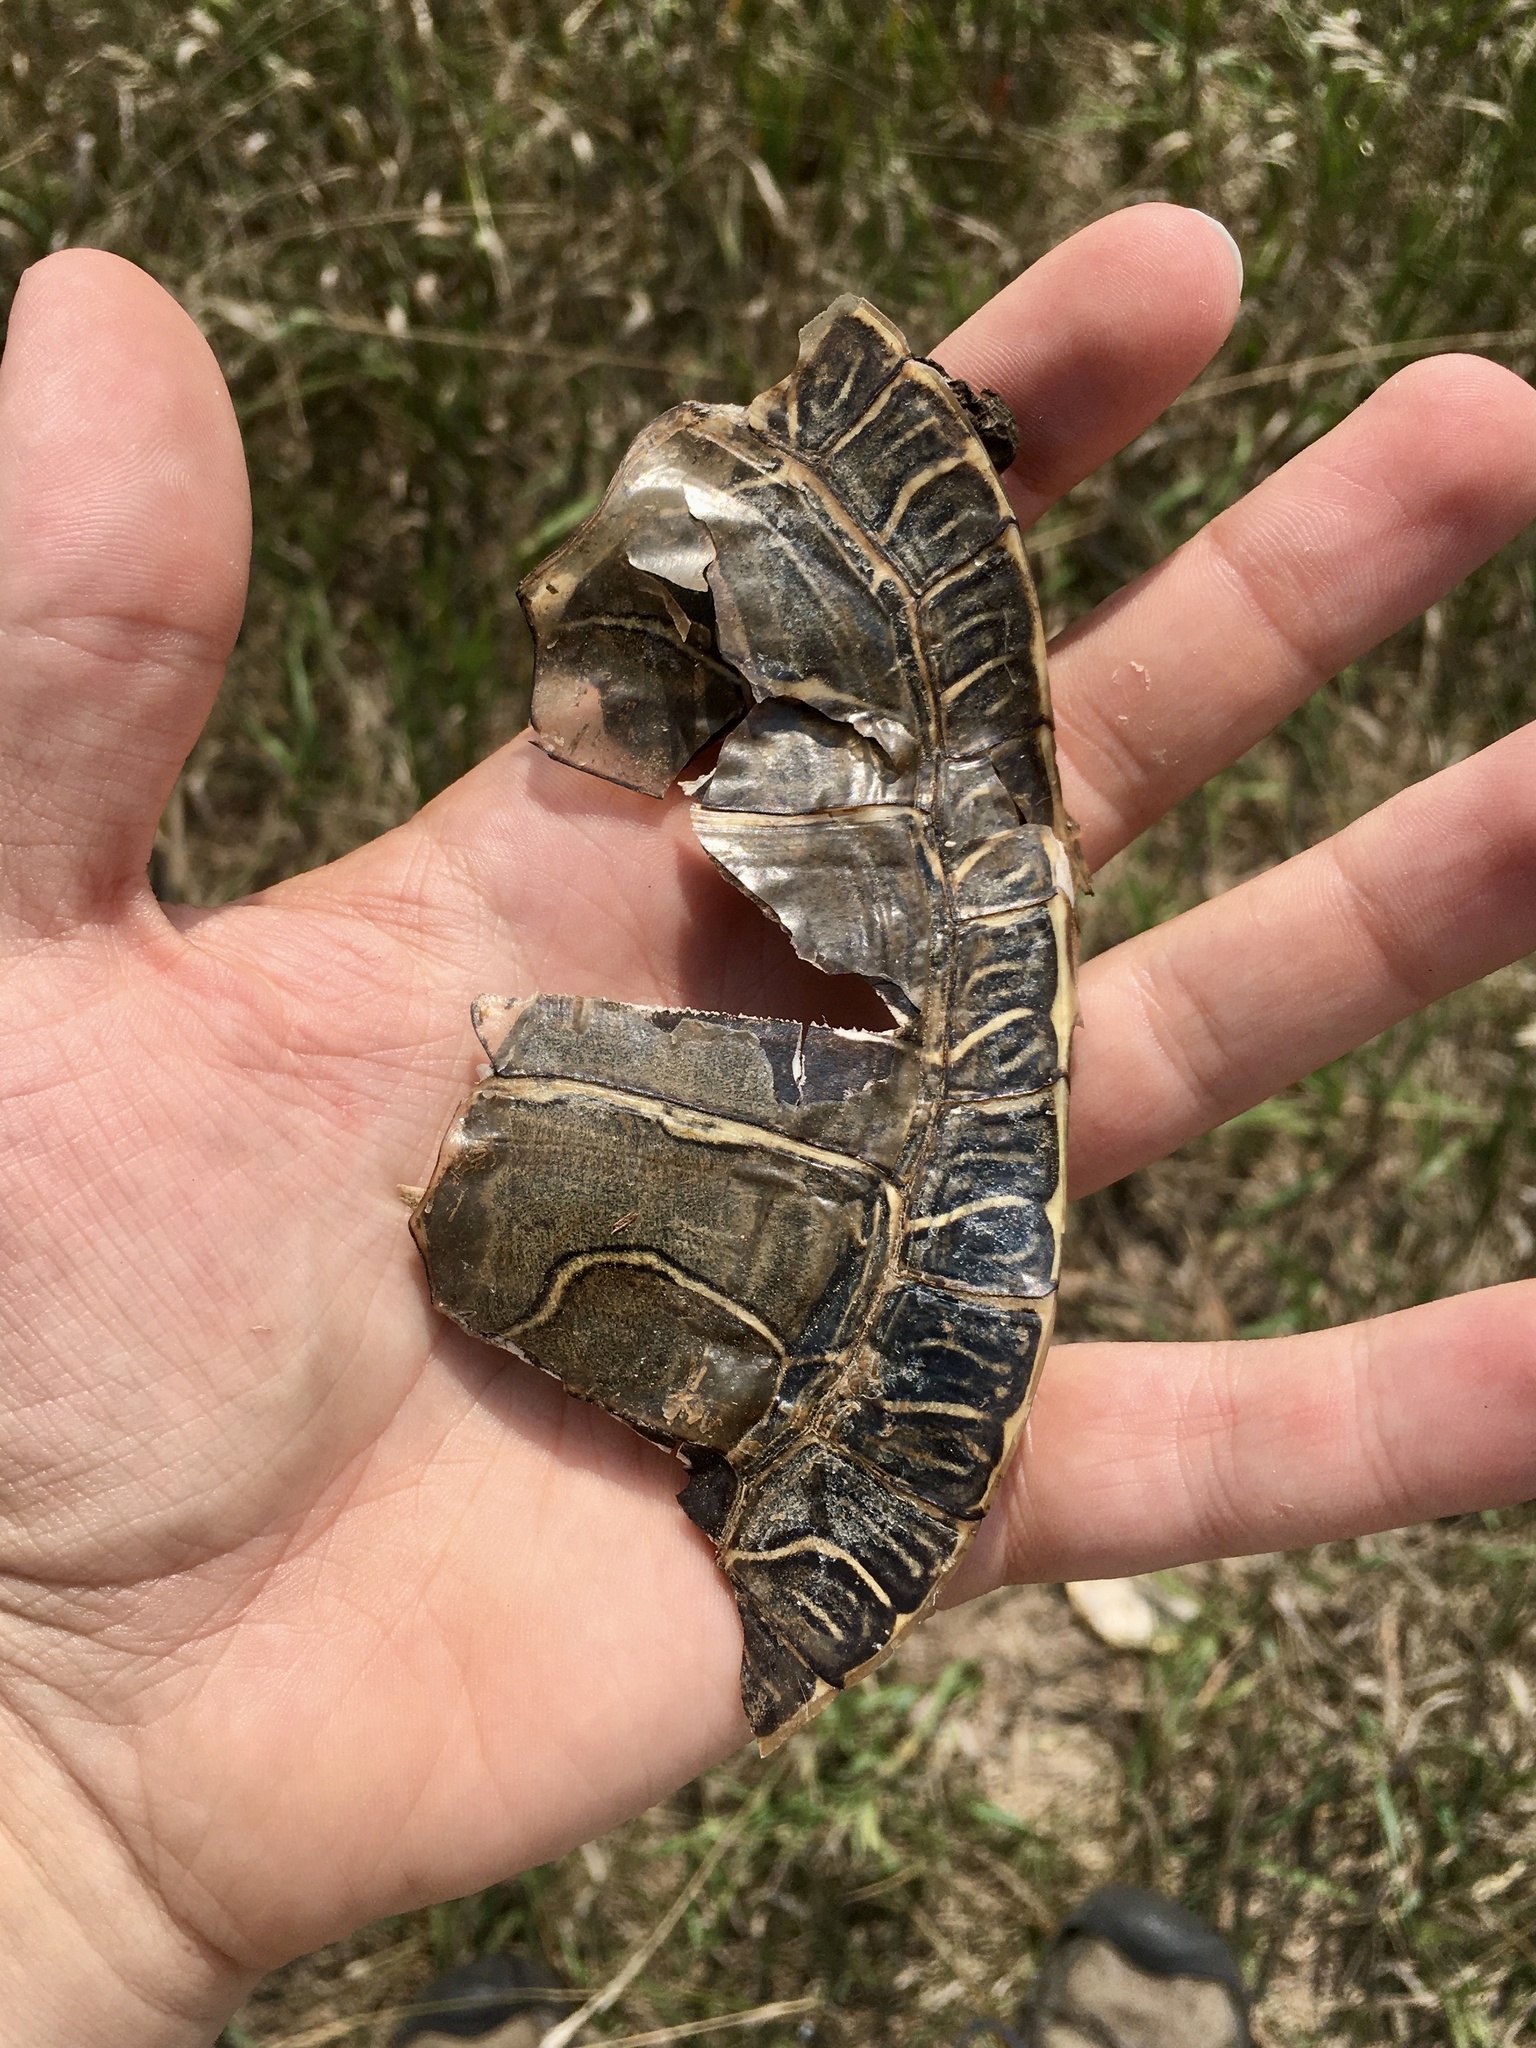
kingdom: Animalia
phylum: Chordata
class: Testudines
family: Emydidae
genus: Chrysemys
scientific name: Chrysemys picta
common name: Painted turtle
